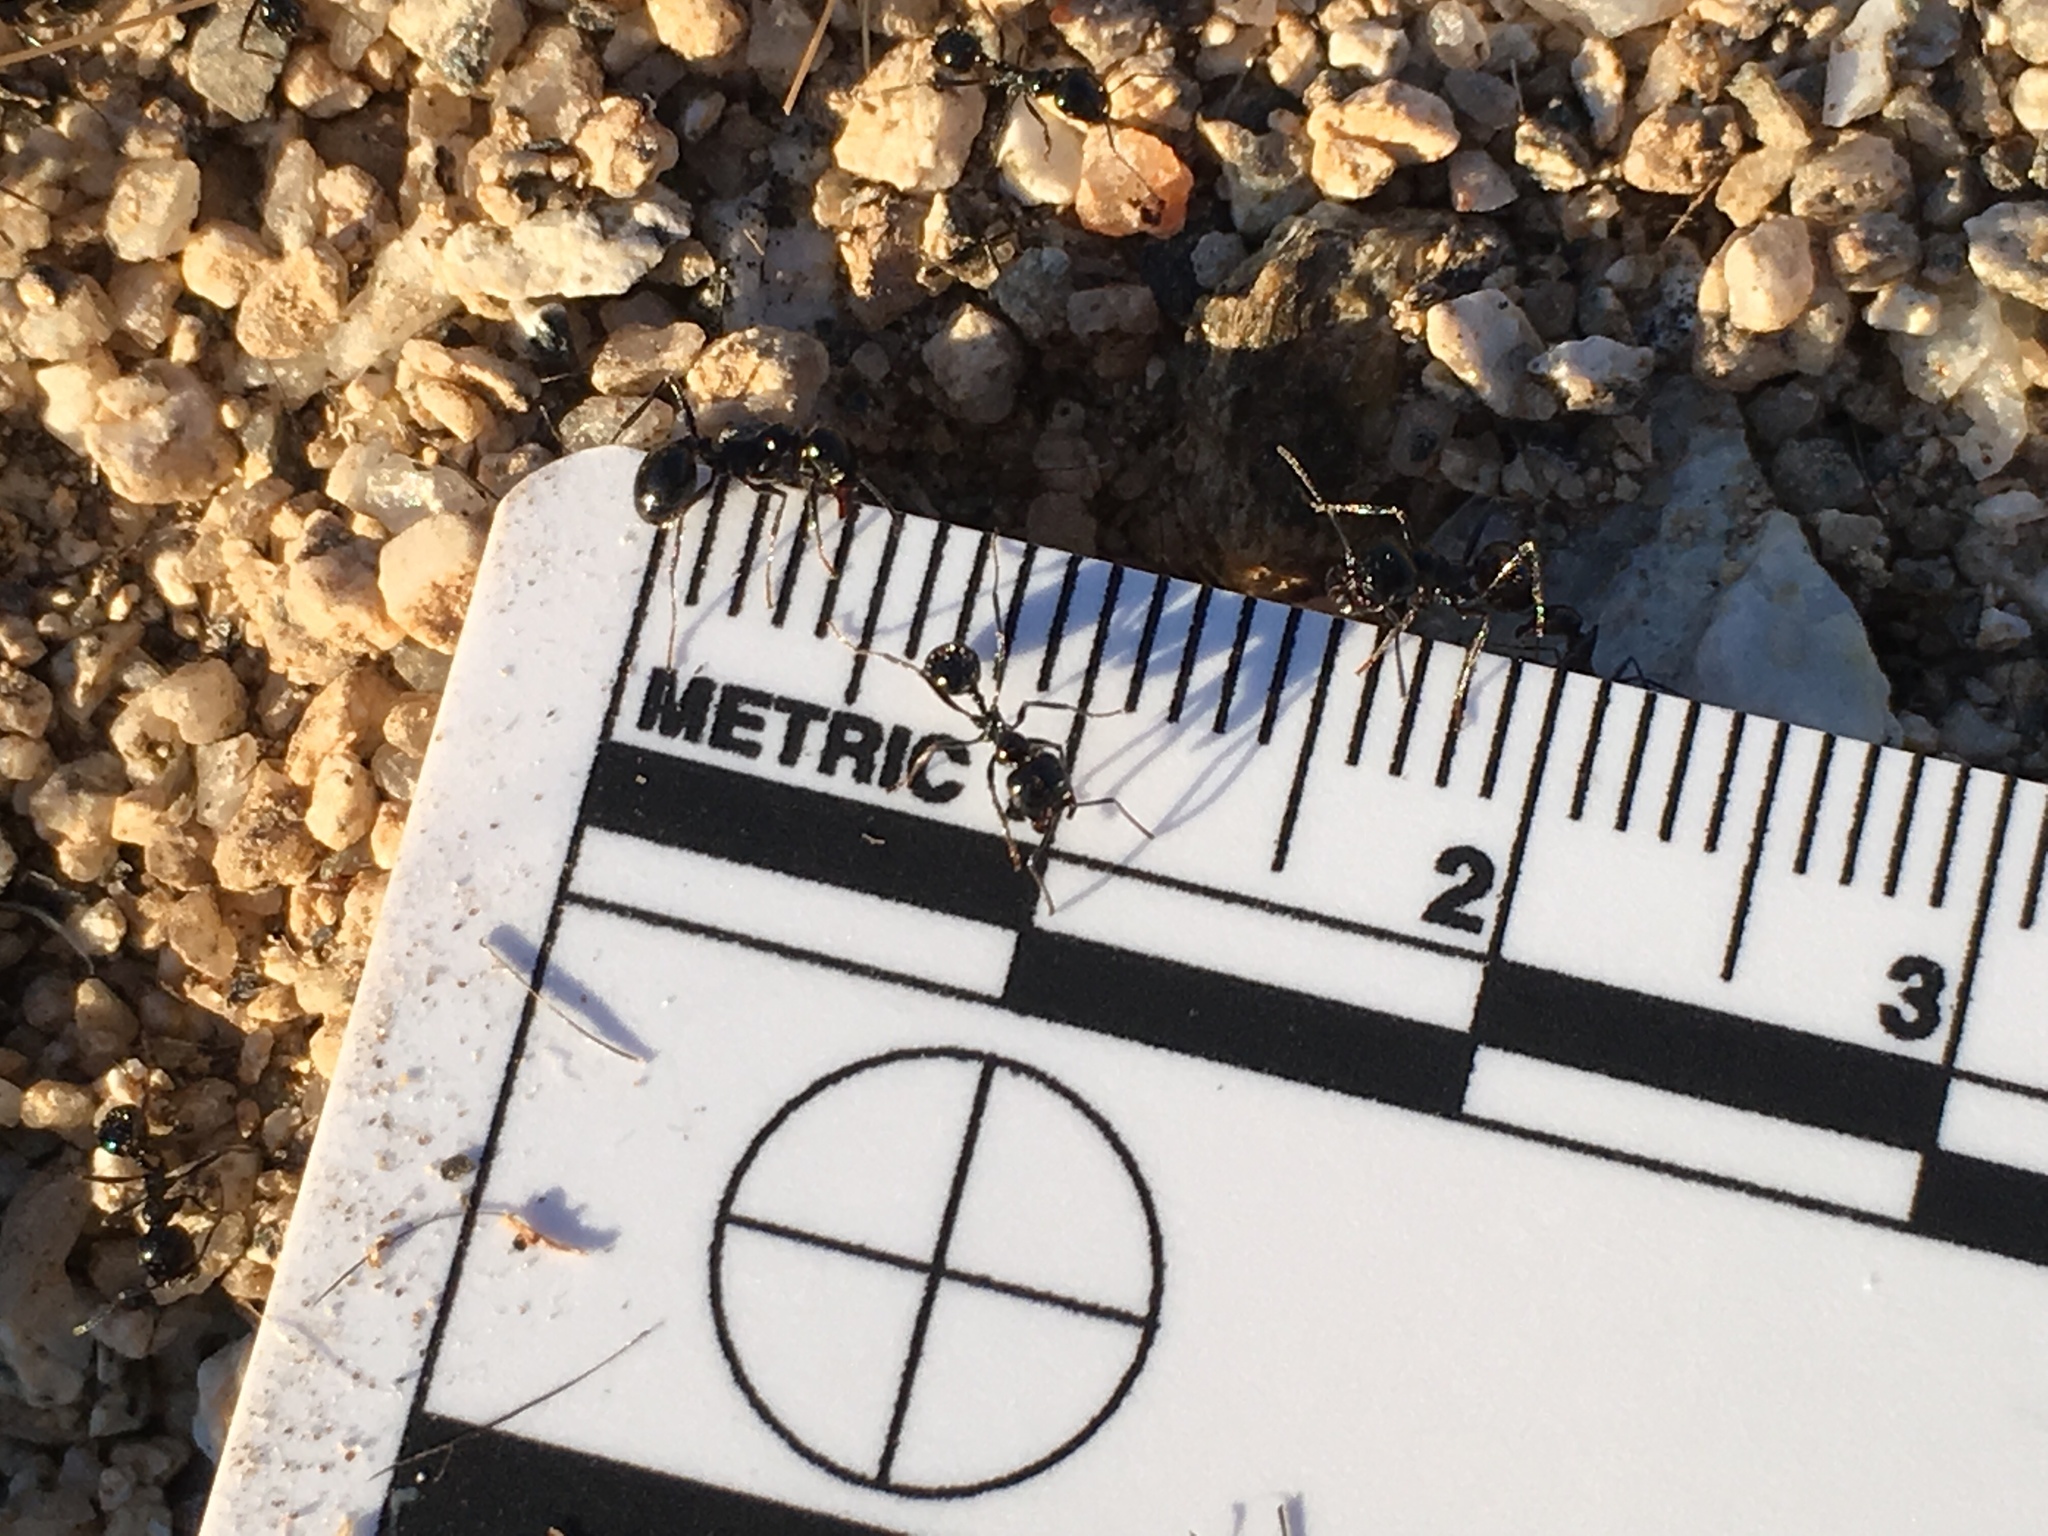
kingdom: Animalia
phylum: Arthropoda
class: Insecta
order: Hymenoptera
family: Formicidae
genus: Messor
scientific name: Messor pergandei
